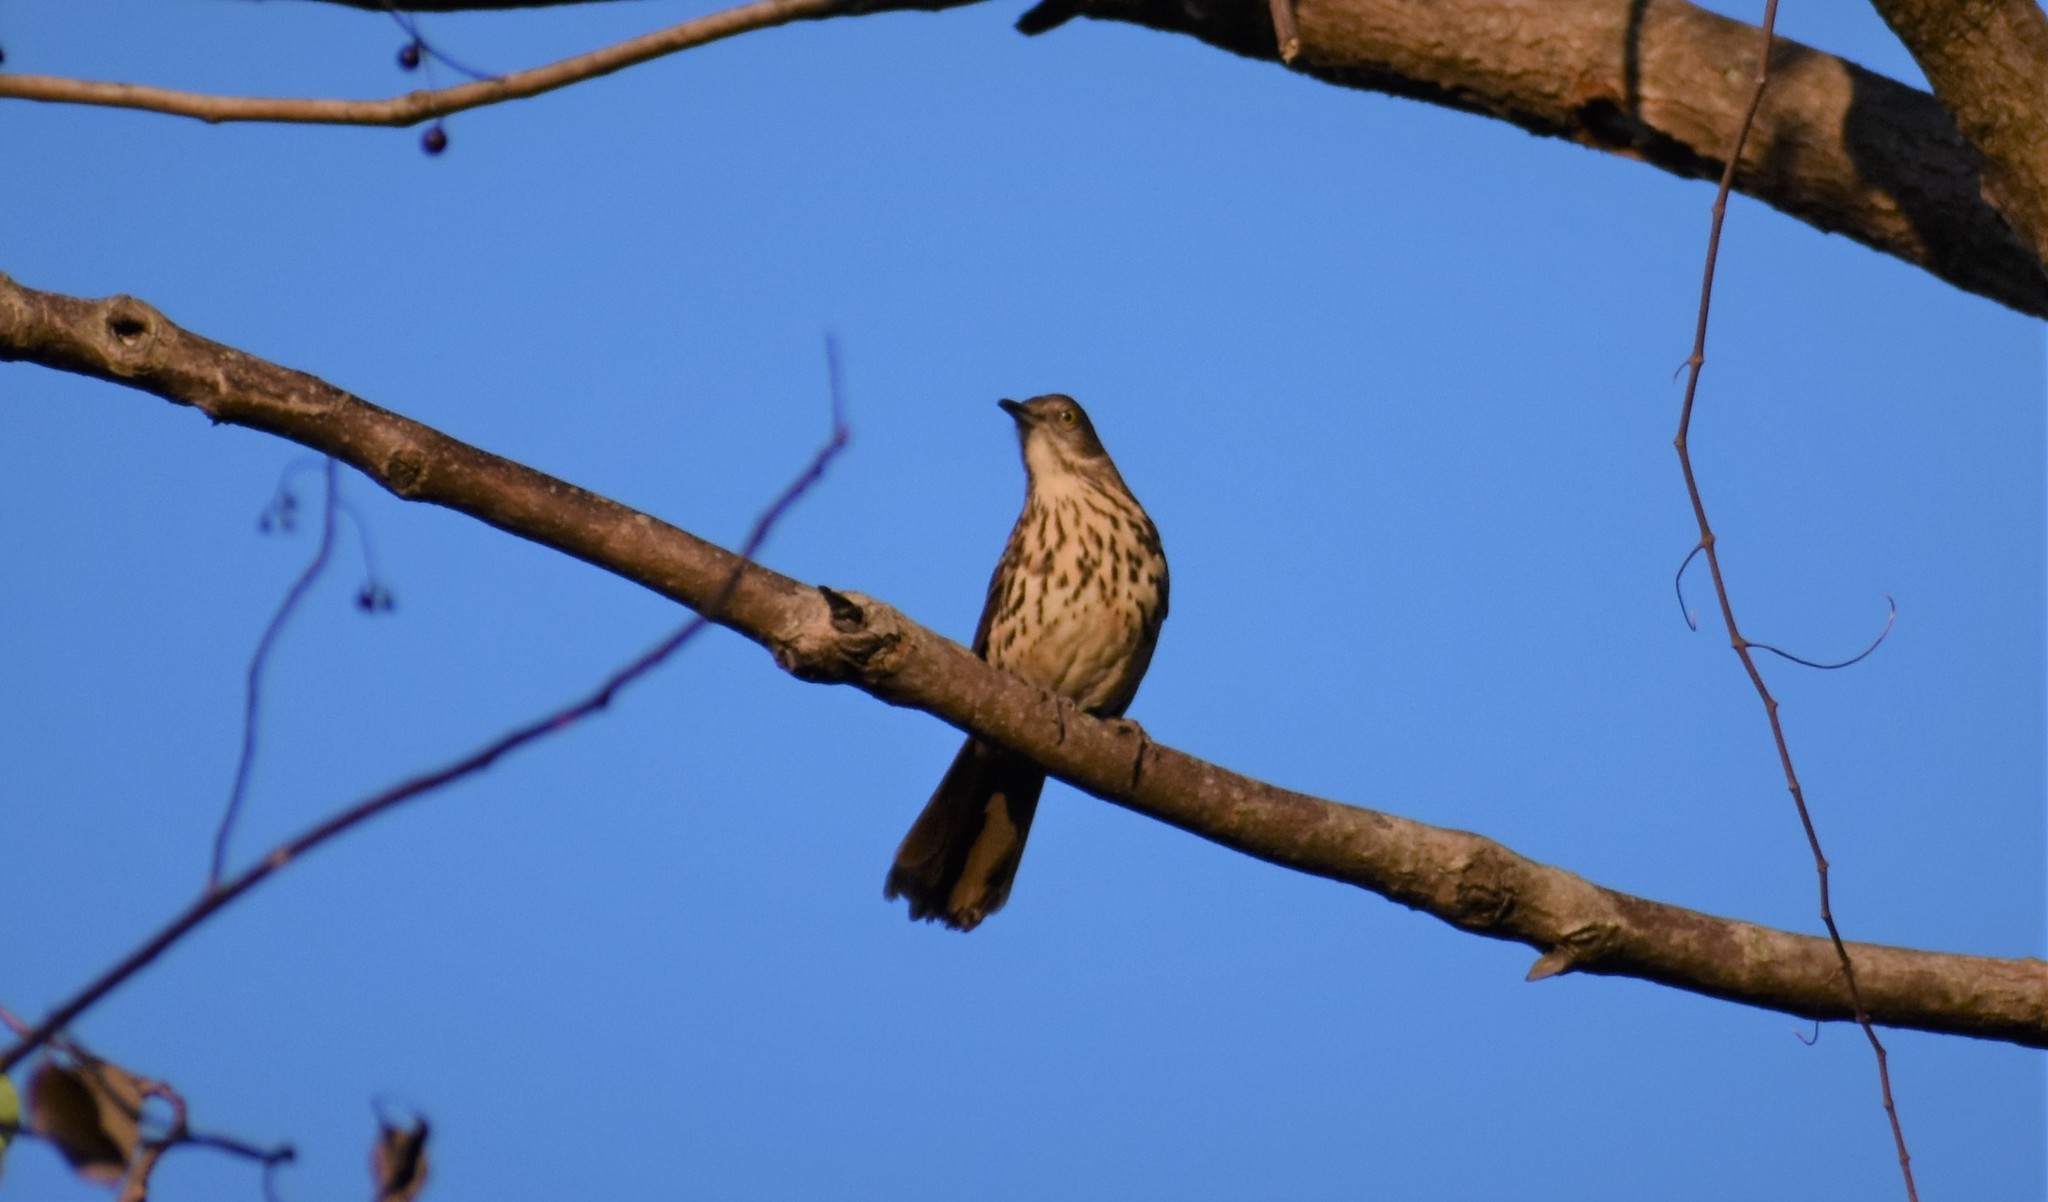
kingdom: Animalia
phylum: Chordata
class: Aves
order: Passeriformes
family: Mimidae
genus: Toxostoma
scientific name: Toxostoma rufum
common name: Brown thrasher
